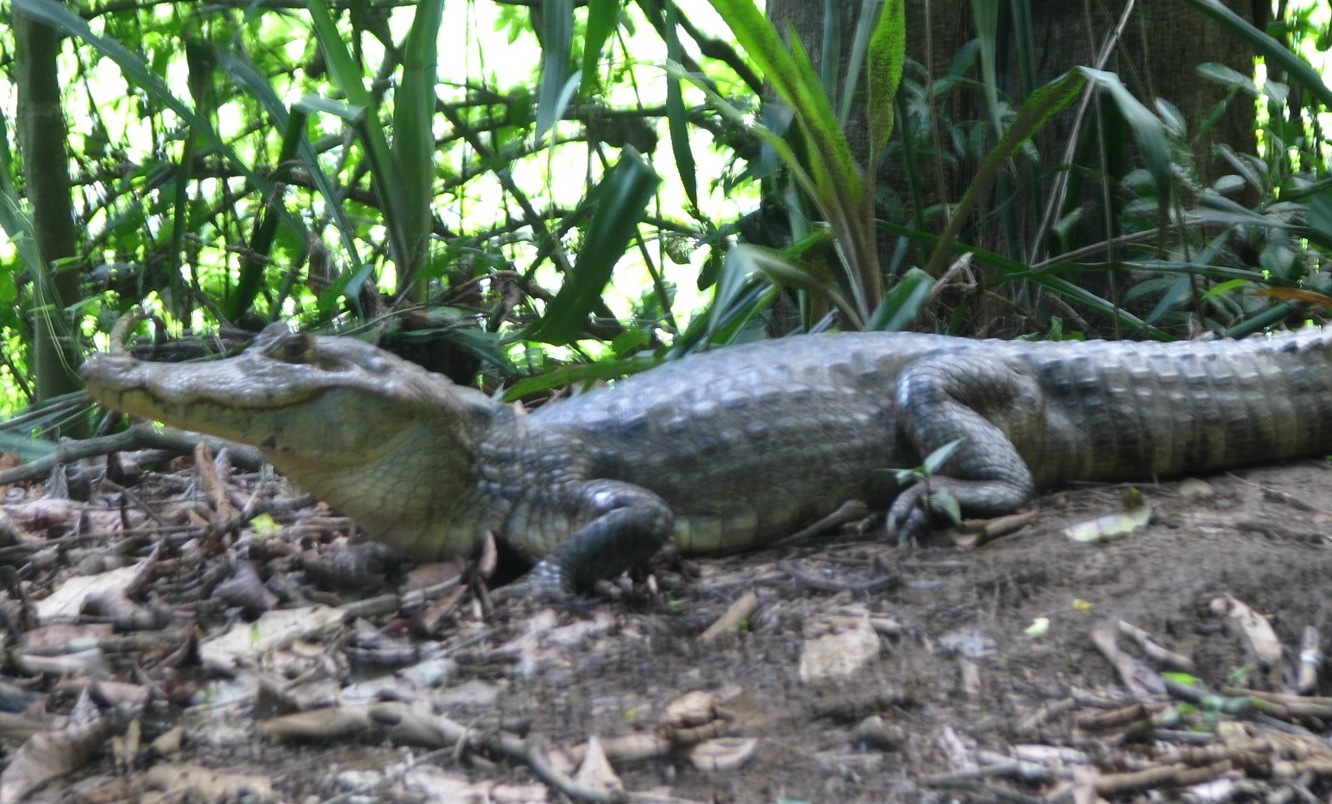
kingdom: Animalia
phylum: Chordata
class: Crocodylia
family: Alligatoridae
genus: Caiman
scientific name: Caiman crocodilus
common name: Common caiman
